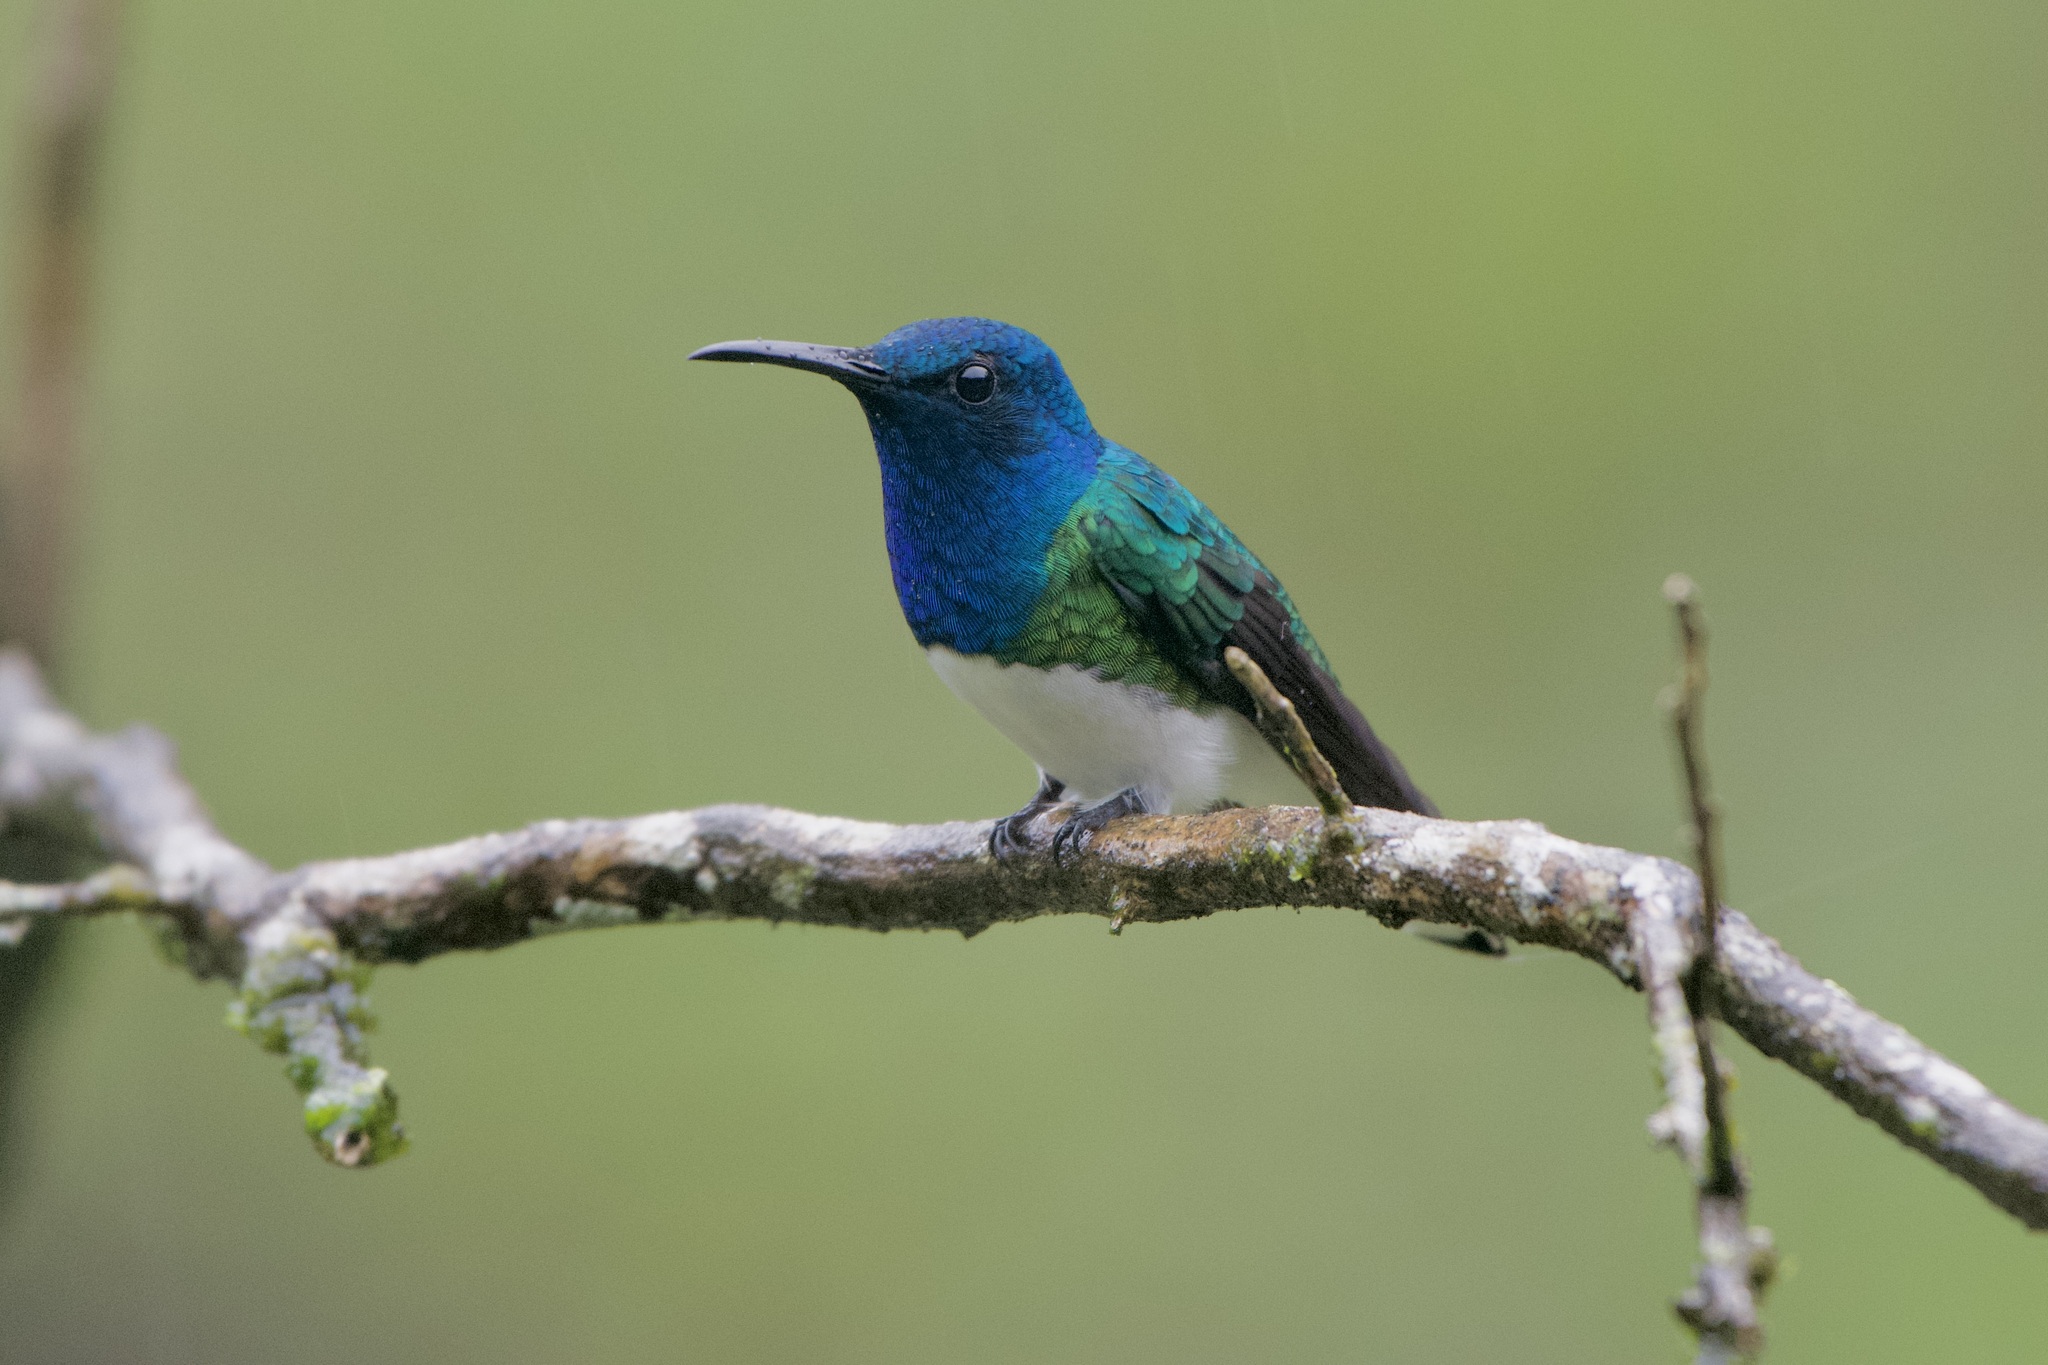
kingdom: Animalia
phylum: Chordata
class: Aves
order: Apodiformes
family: Trochilidae
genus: Florisuga
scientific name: Florisuga mellivora
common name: White-necked jacobin
